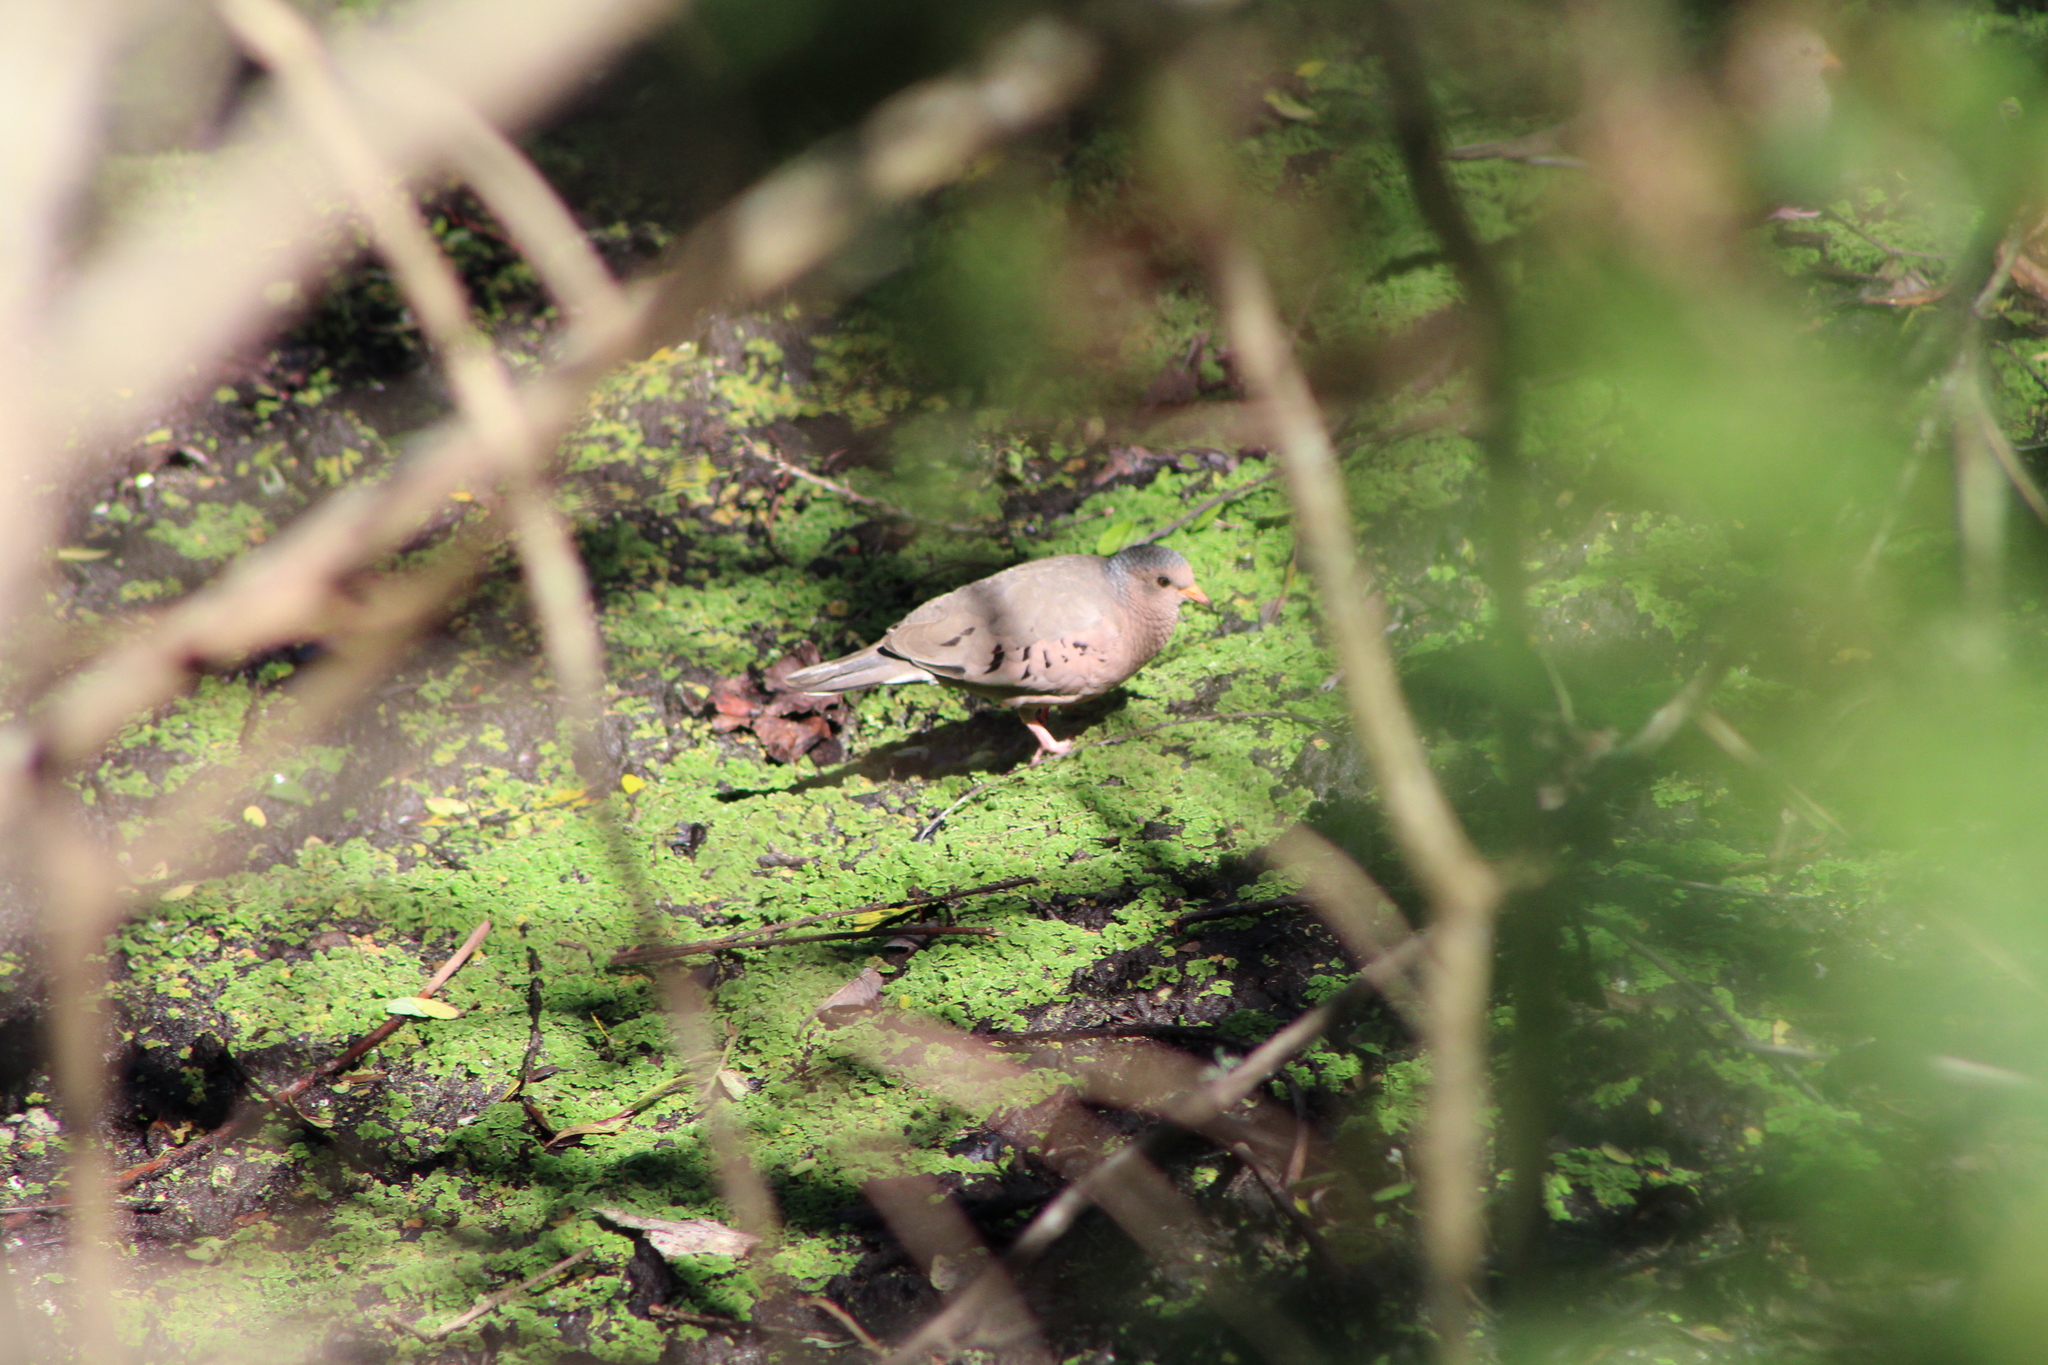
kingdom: Animalia
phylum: Chordata
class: Aves
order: Columbiformes
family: Columbidae
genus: Columbina
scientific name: Columbina passerina
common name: Common ground-dove
